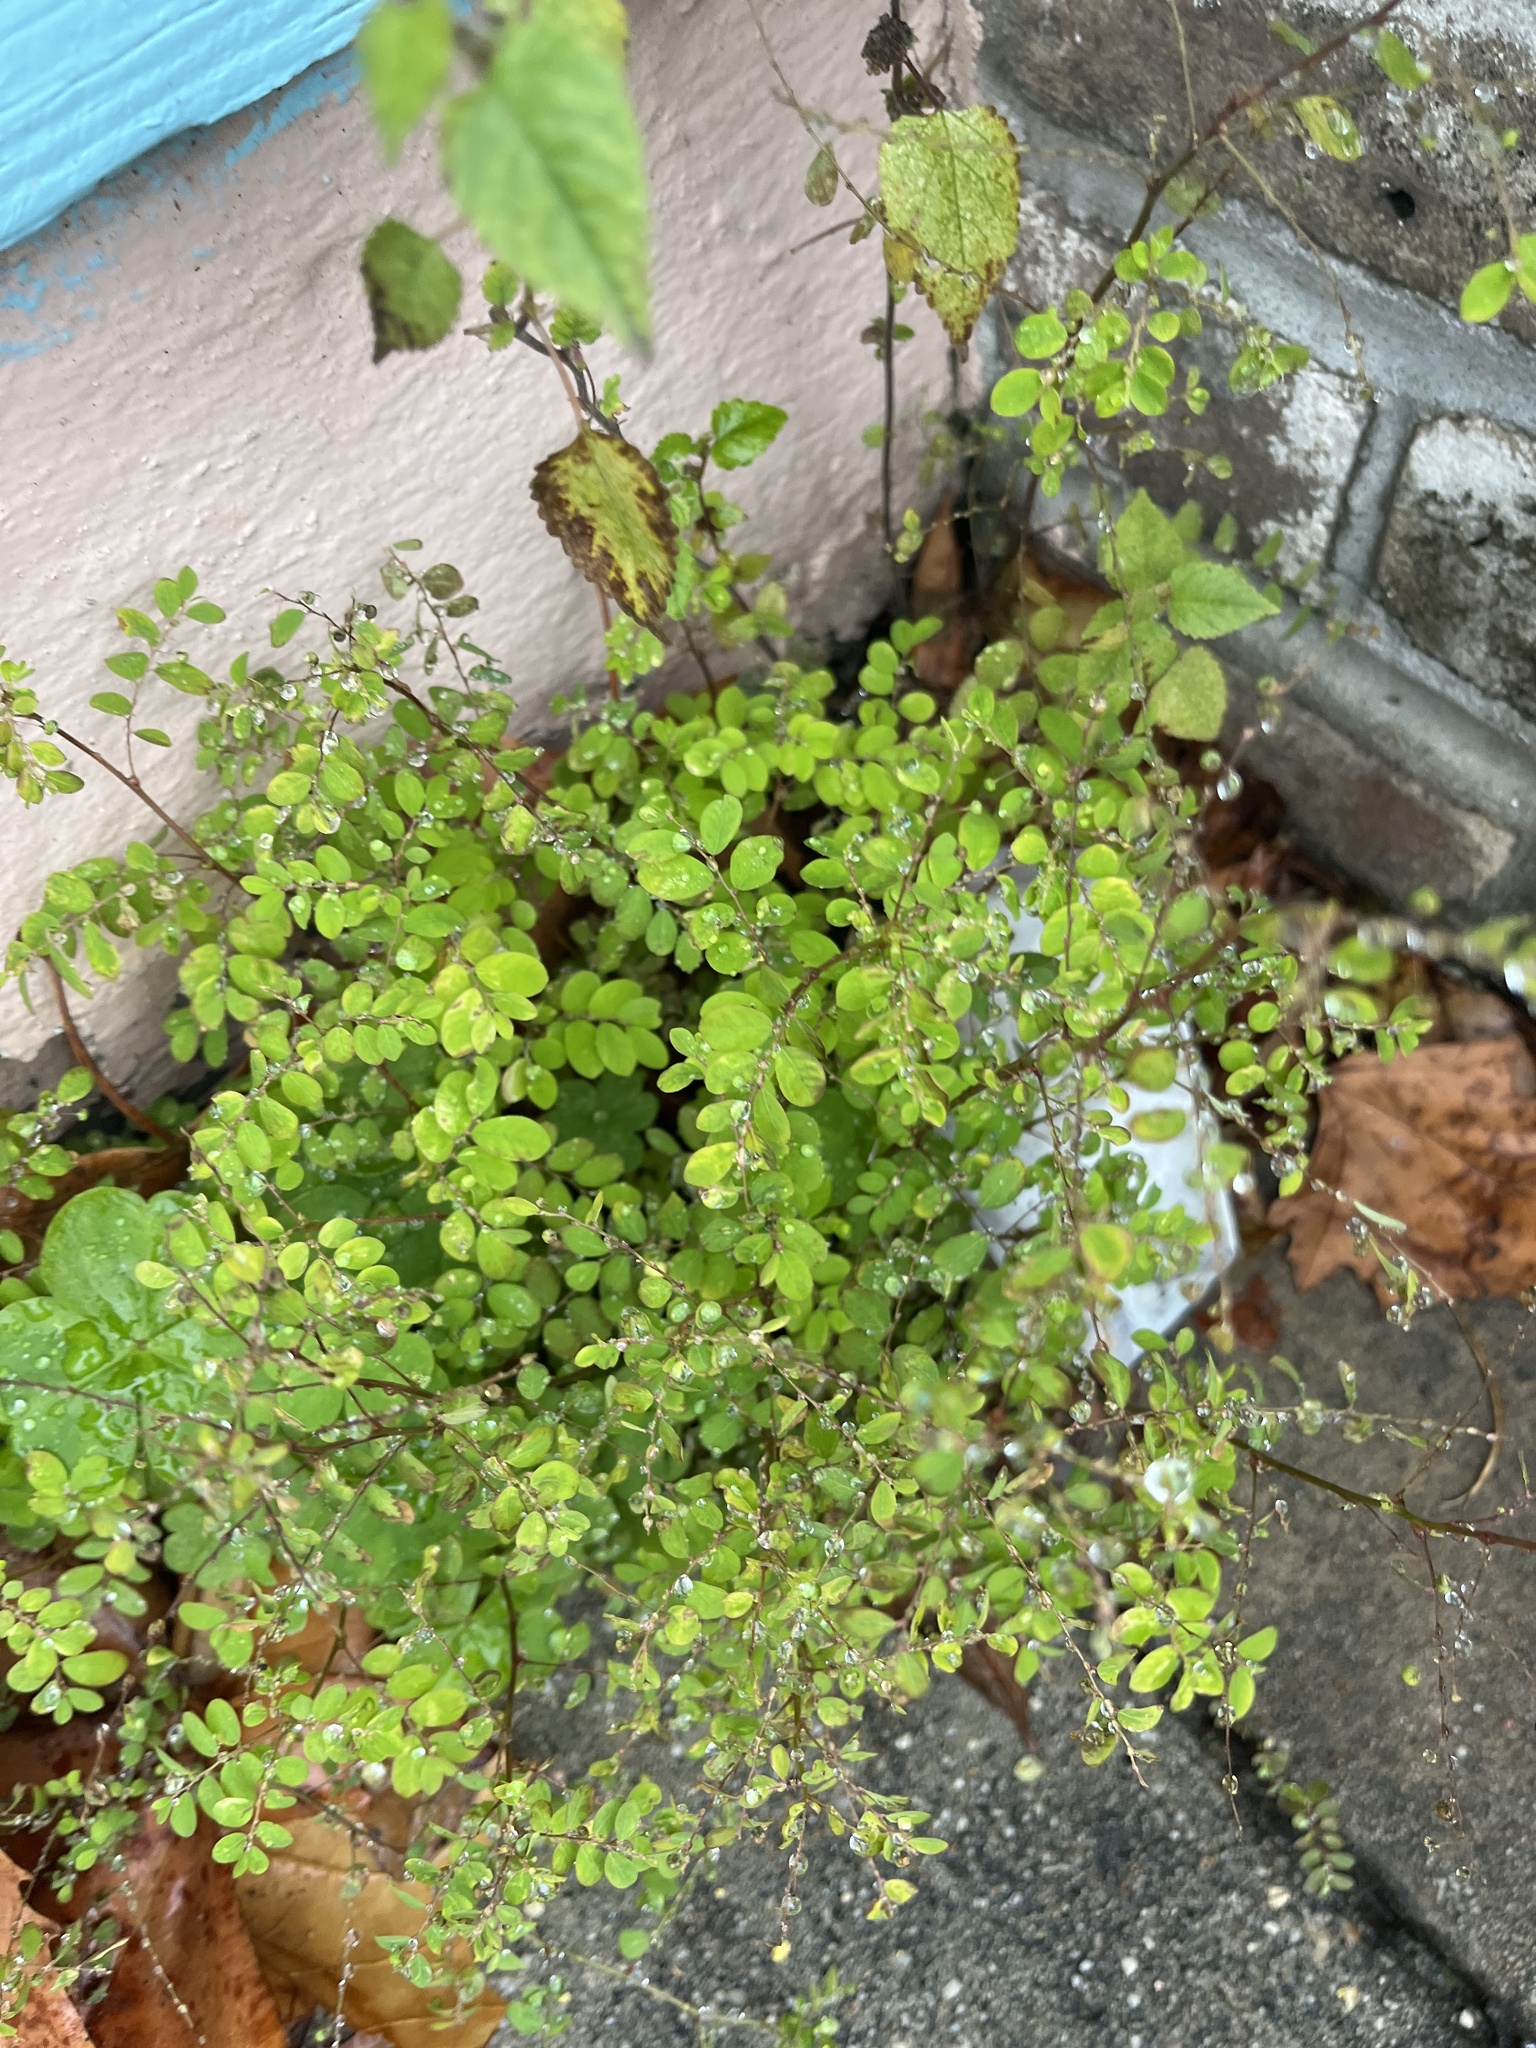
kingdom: Plantae
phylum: Tracheophyta
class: Magnoliopsida
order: Malpighiales
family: Phyllanthaceae
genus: Phyllanthus
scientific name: Phyllanthus tenellus
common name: Mascarene island leaf-flower
